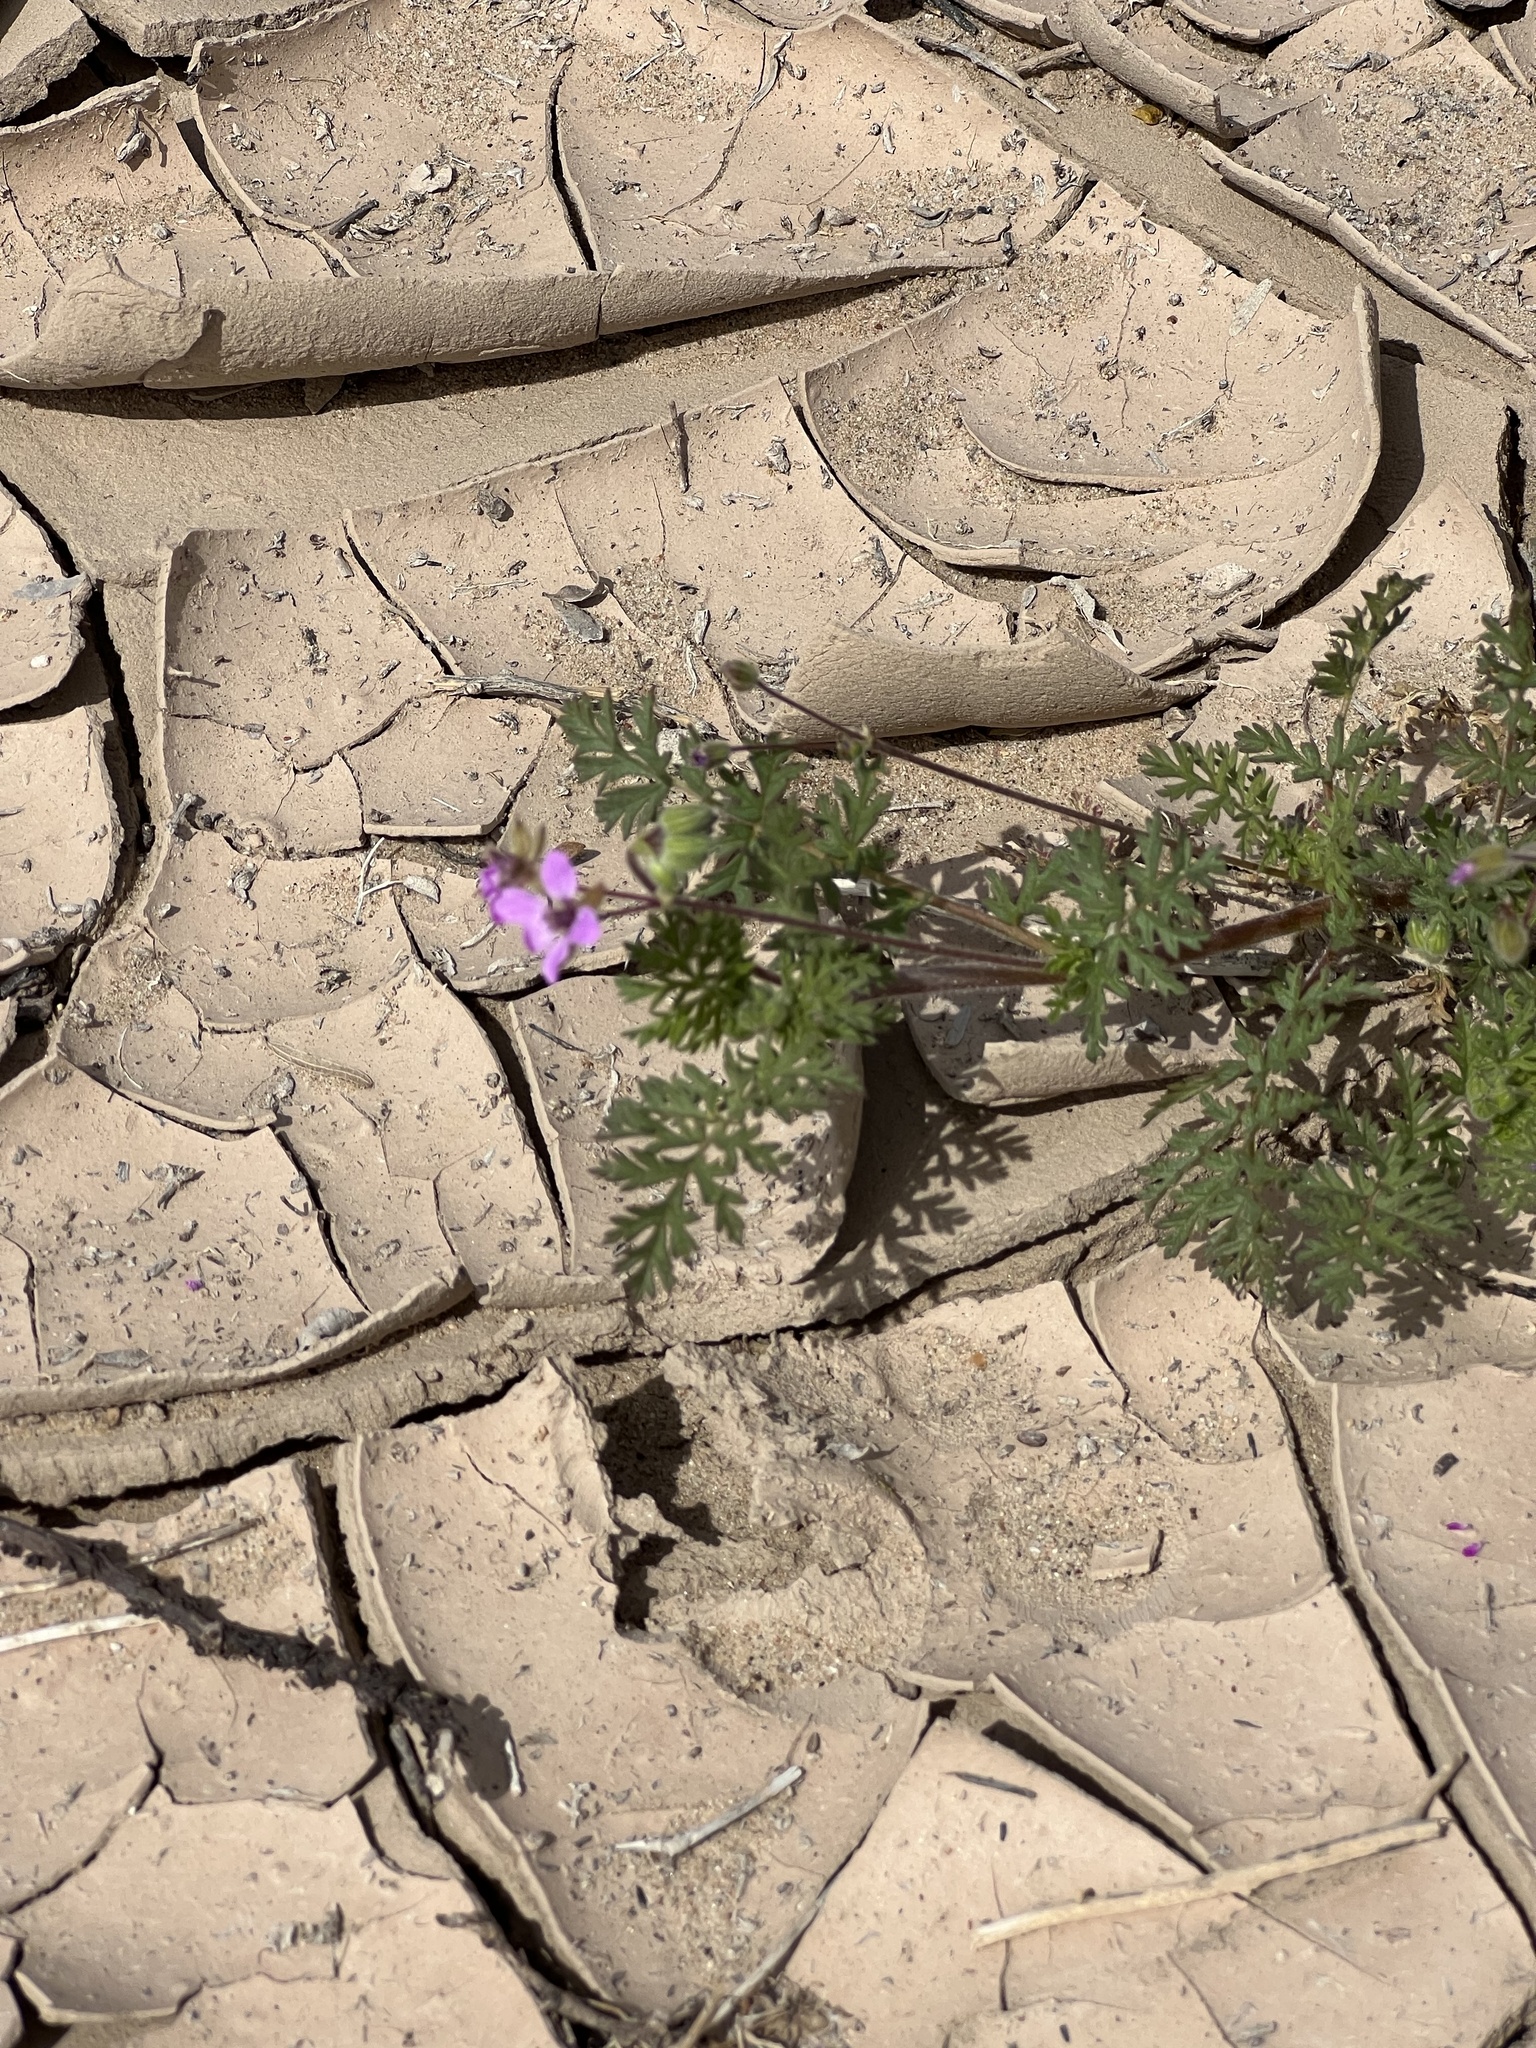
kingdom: Plantae
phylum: Tracheophyta
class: Magnoliopsida
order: Geraniales
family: Geraniaceae
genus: Erodium
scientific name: Erodium cicutarium
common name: Common stork's-bill
